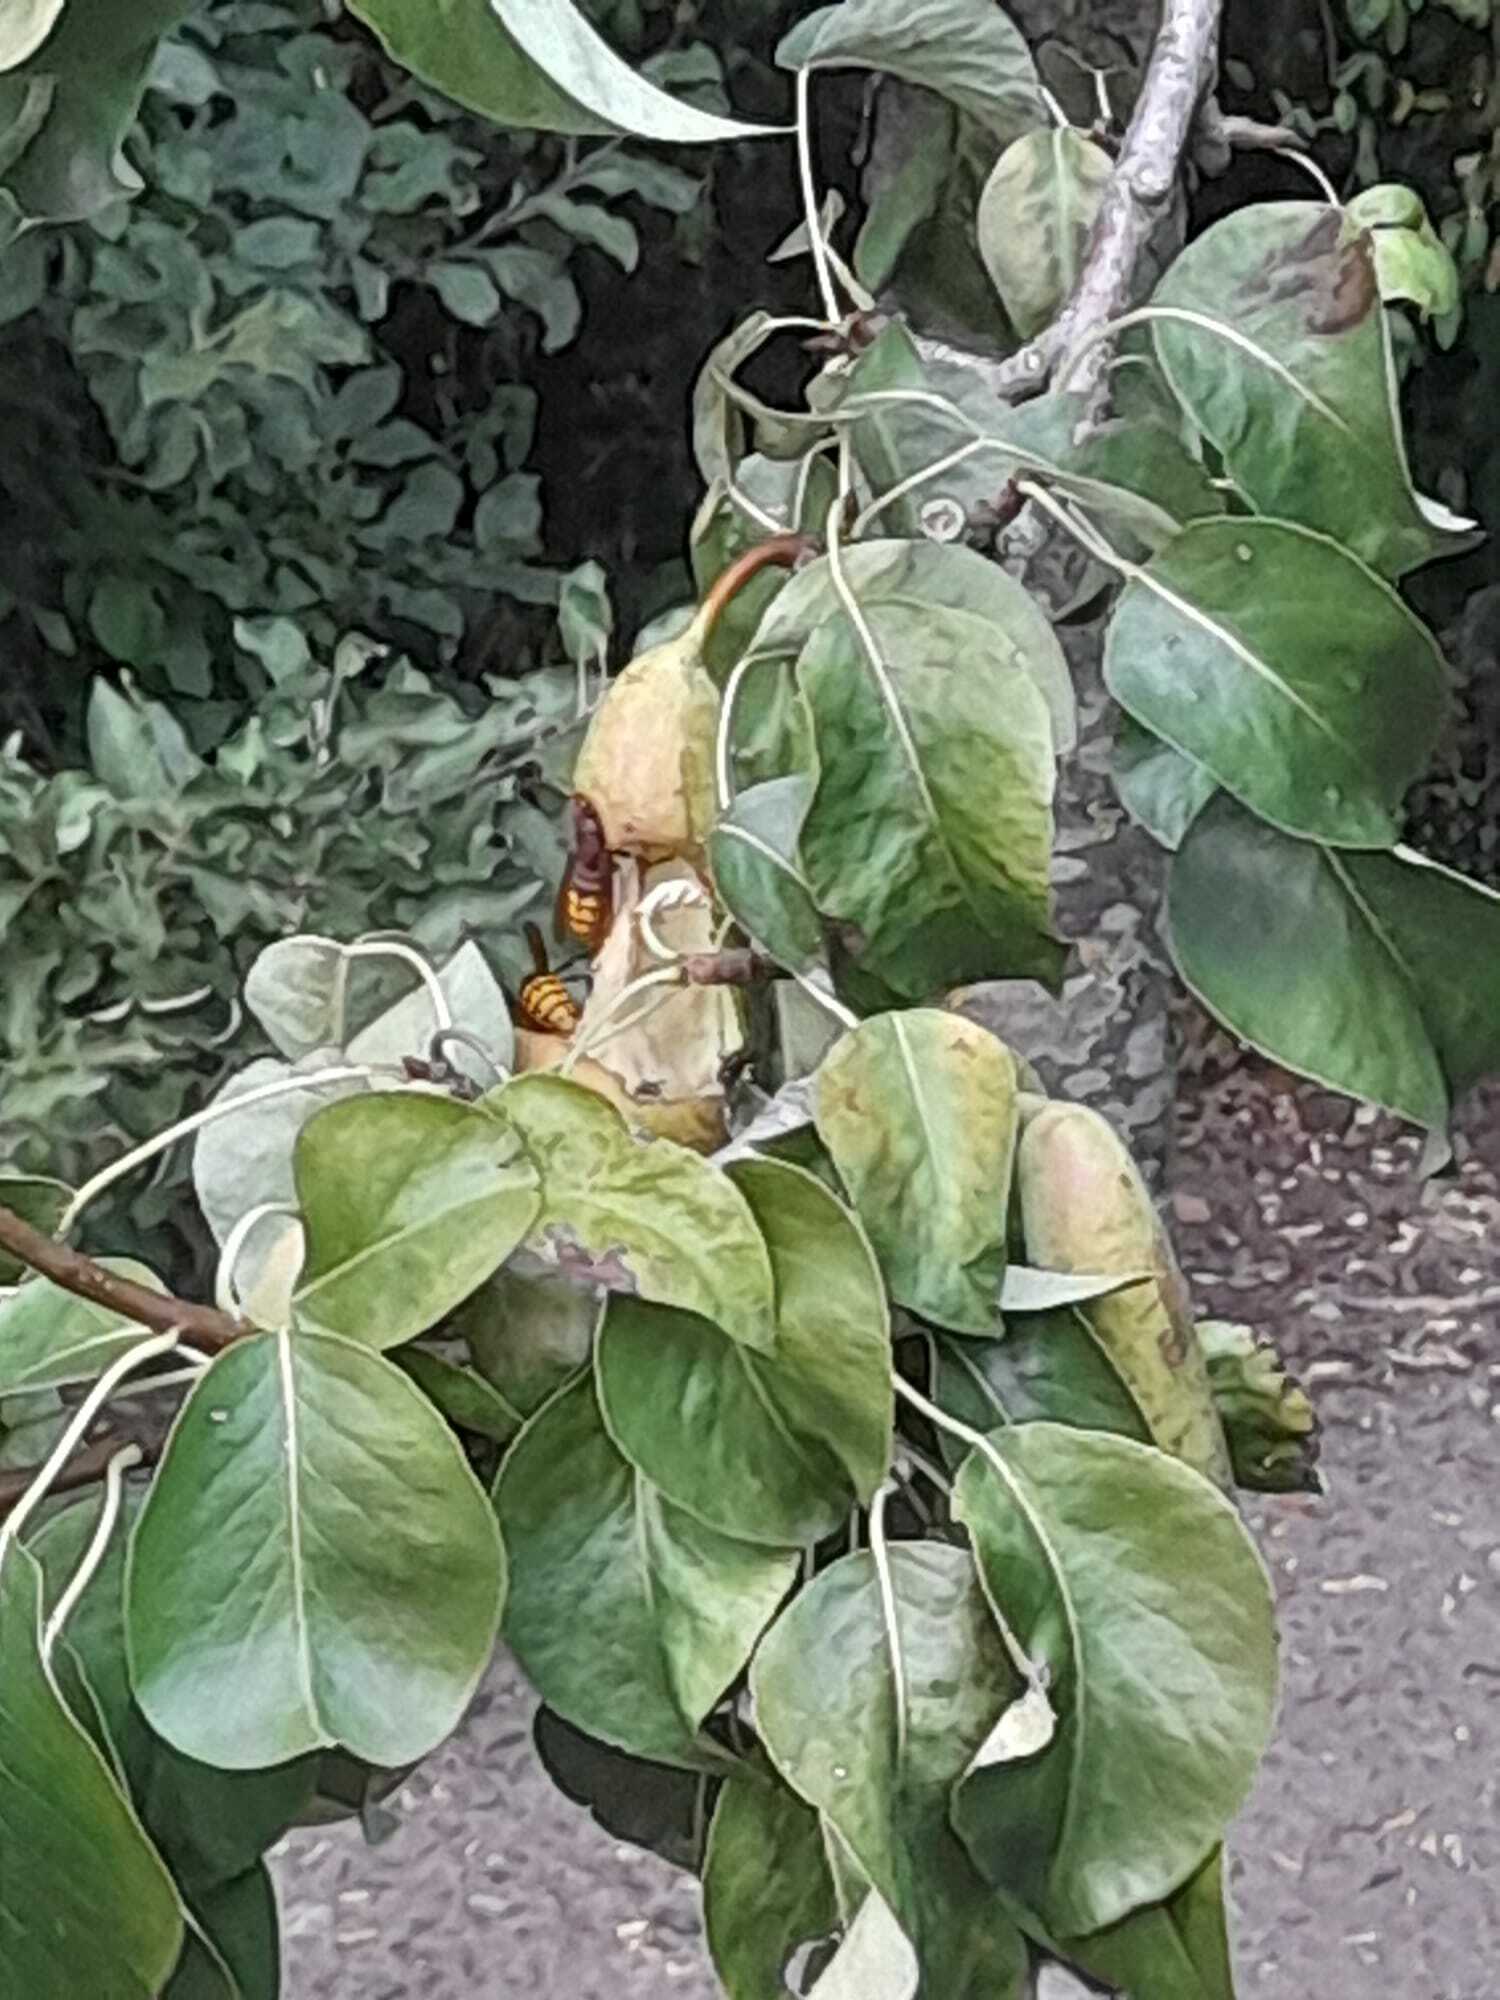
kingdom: Animalia
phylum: Arthropoda
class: Insecta
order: Hymenoptera
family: Vespidae
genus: Vespa
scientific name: Vespa crabro
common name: Hornet
